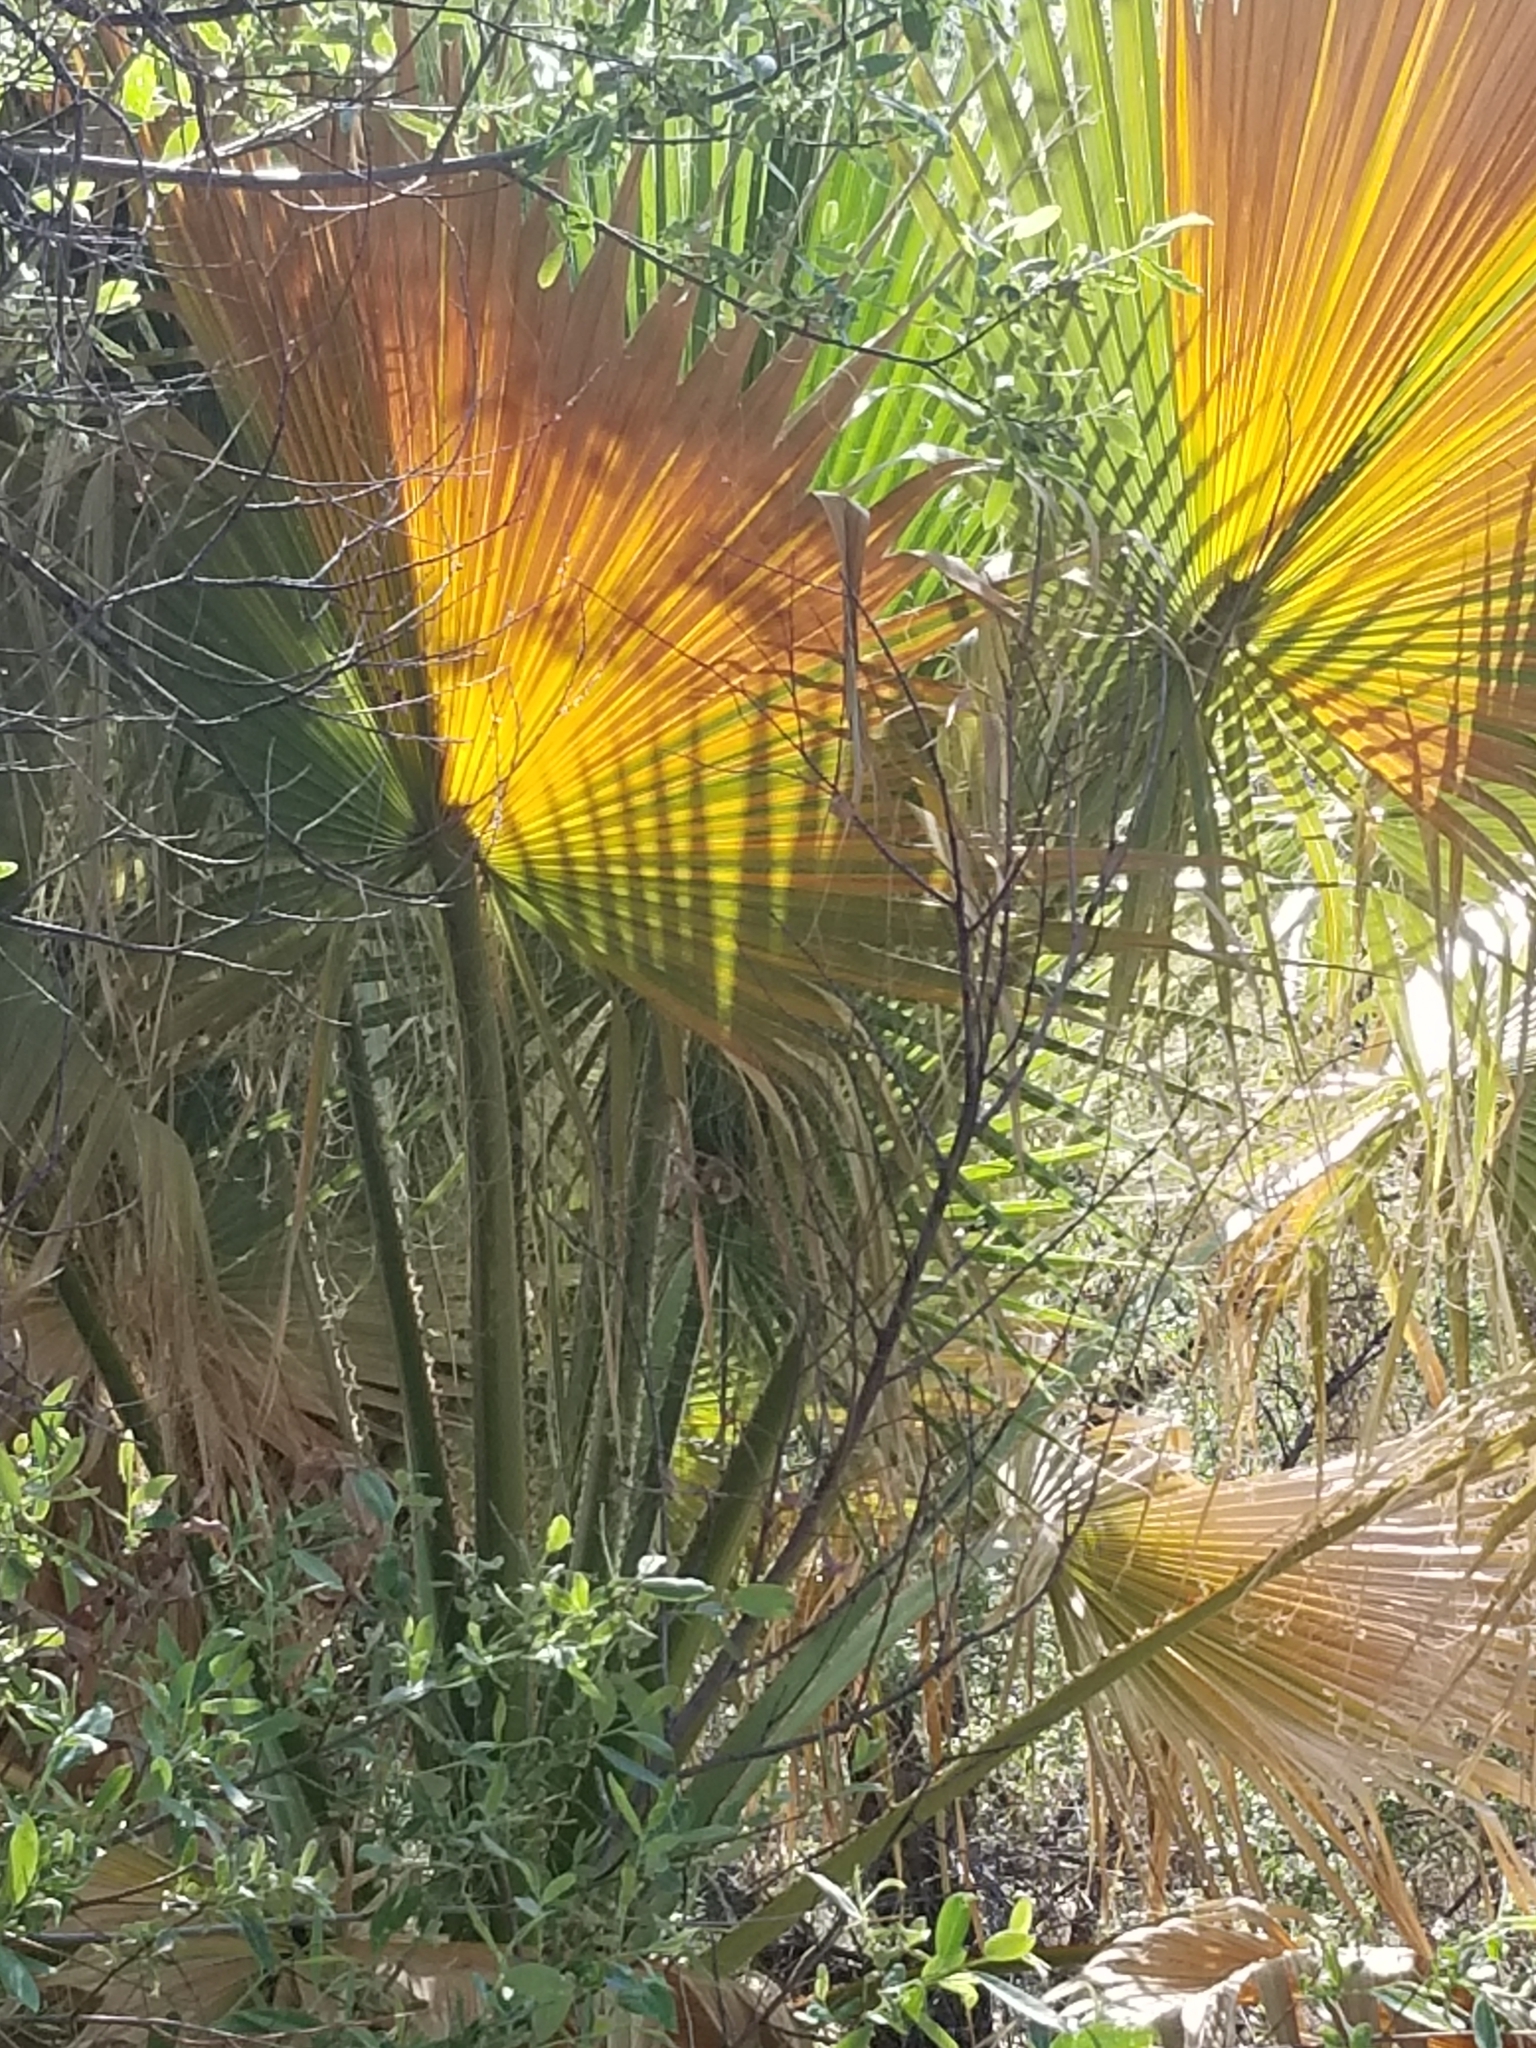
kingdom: Plantae
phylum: Tracheophyta
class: Liliopsida
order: Arecales
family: Arecaceae
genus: Washingtonia
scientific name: Washingtonia filifera
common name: California fan palm
